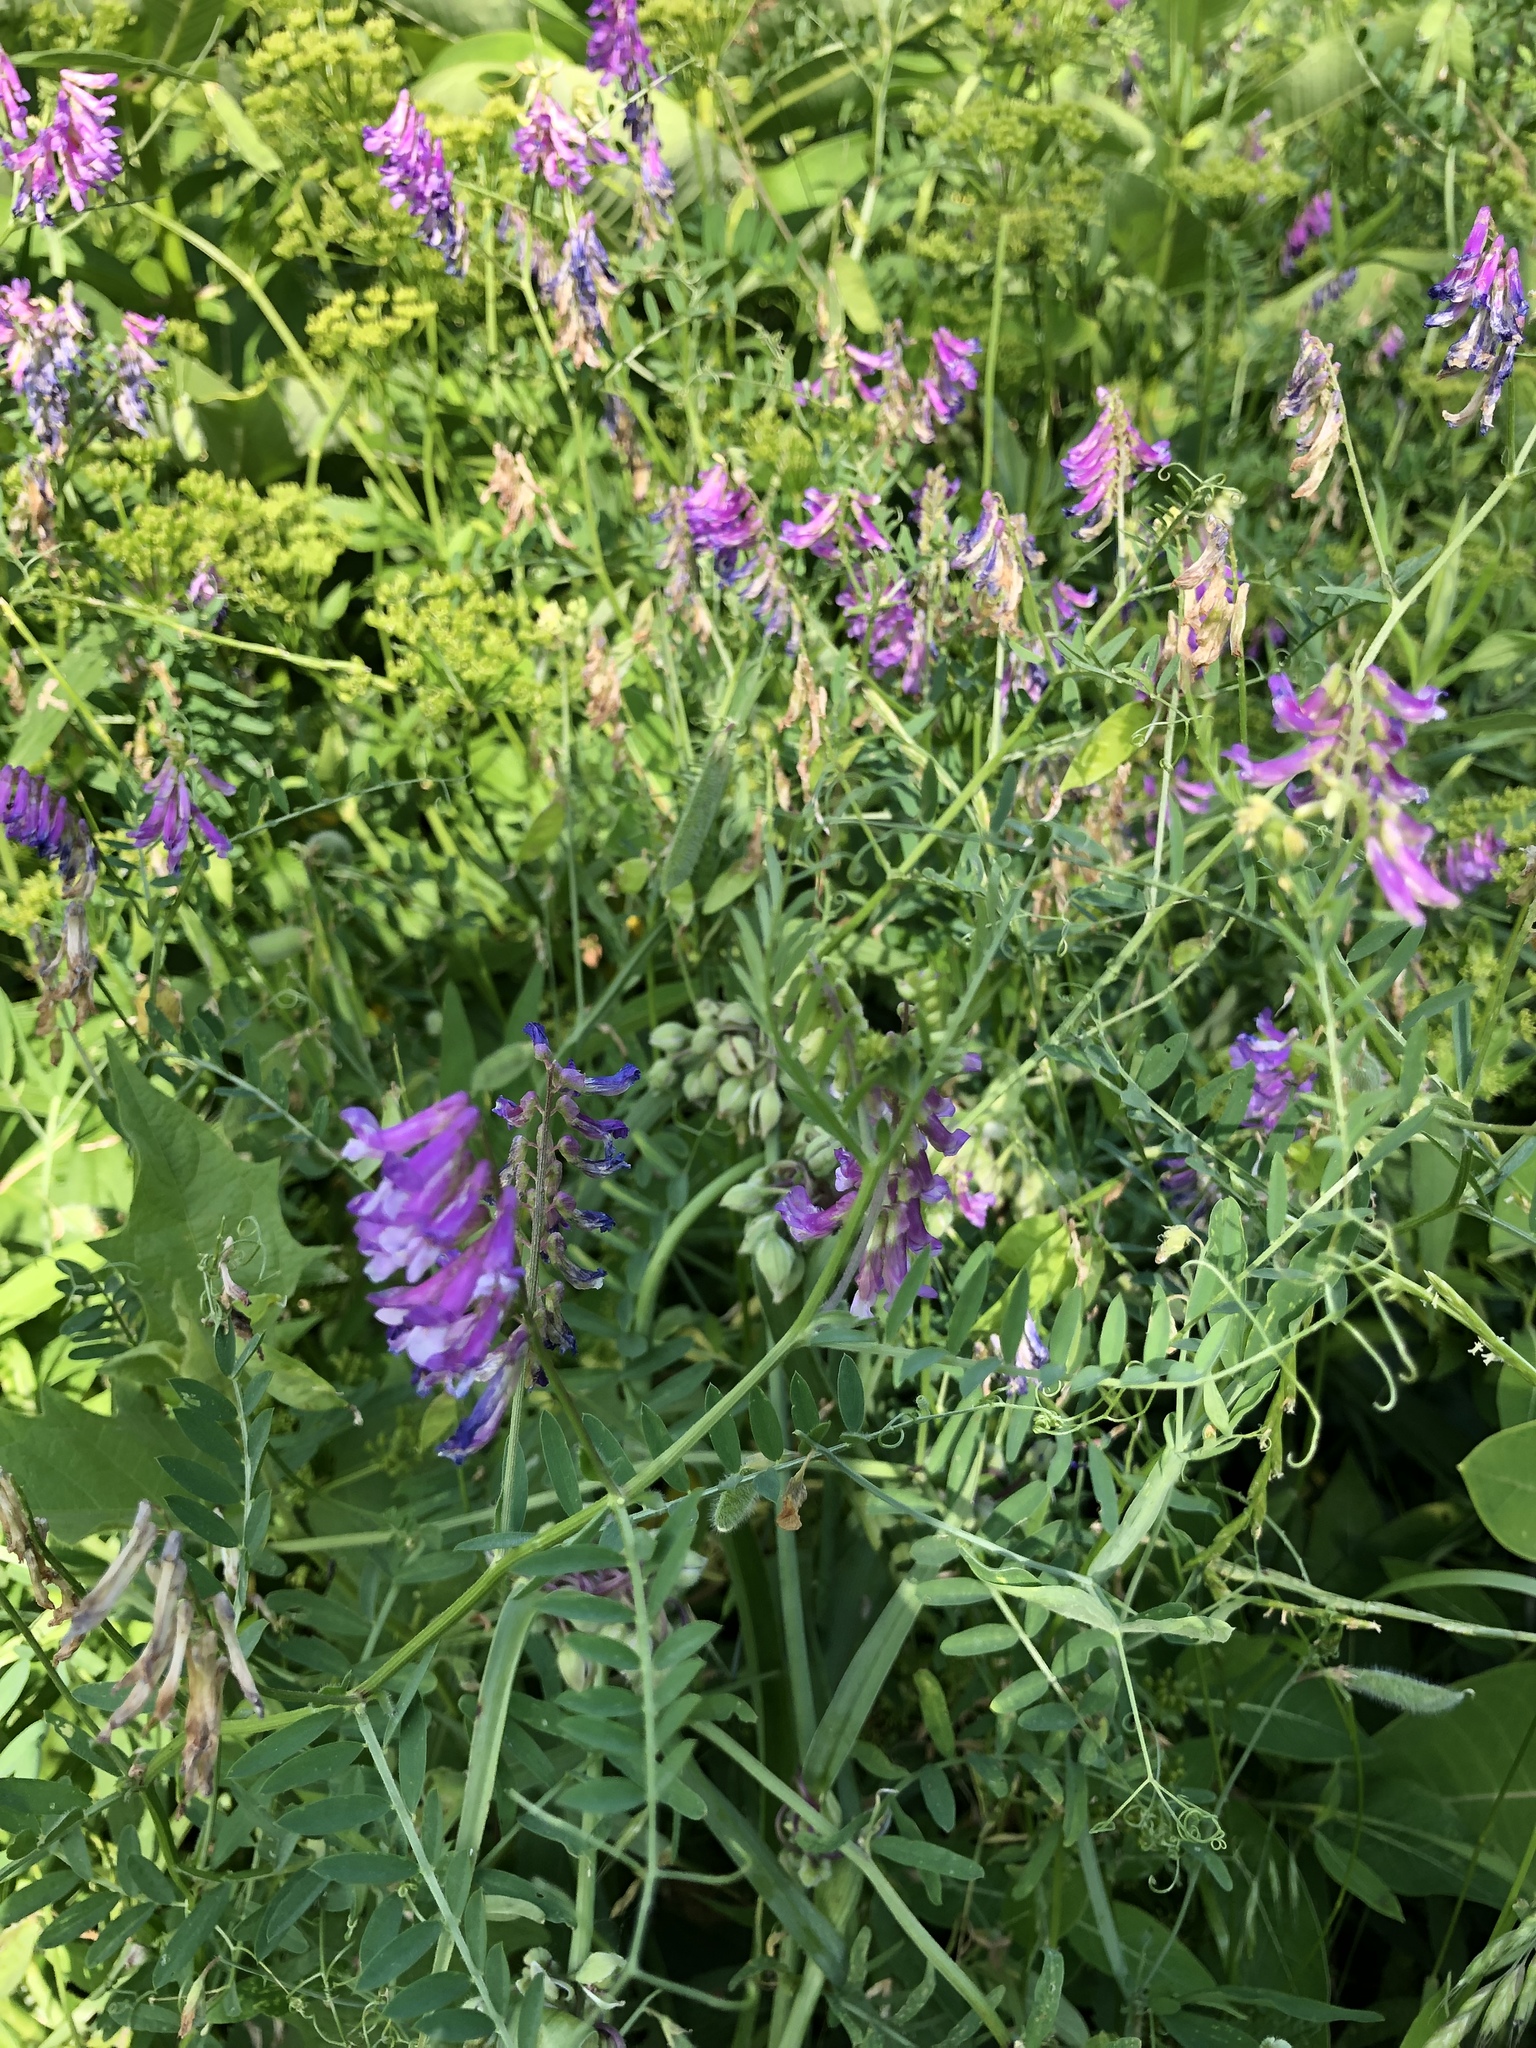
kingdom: Plantae
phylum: Tracheophyta
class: Magnoliopsida
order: Fabales
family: Fabaceae
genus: Vicia
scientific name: Vicia villosa
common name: Fodder vetch
